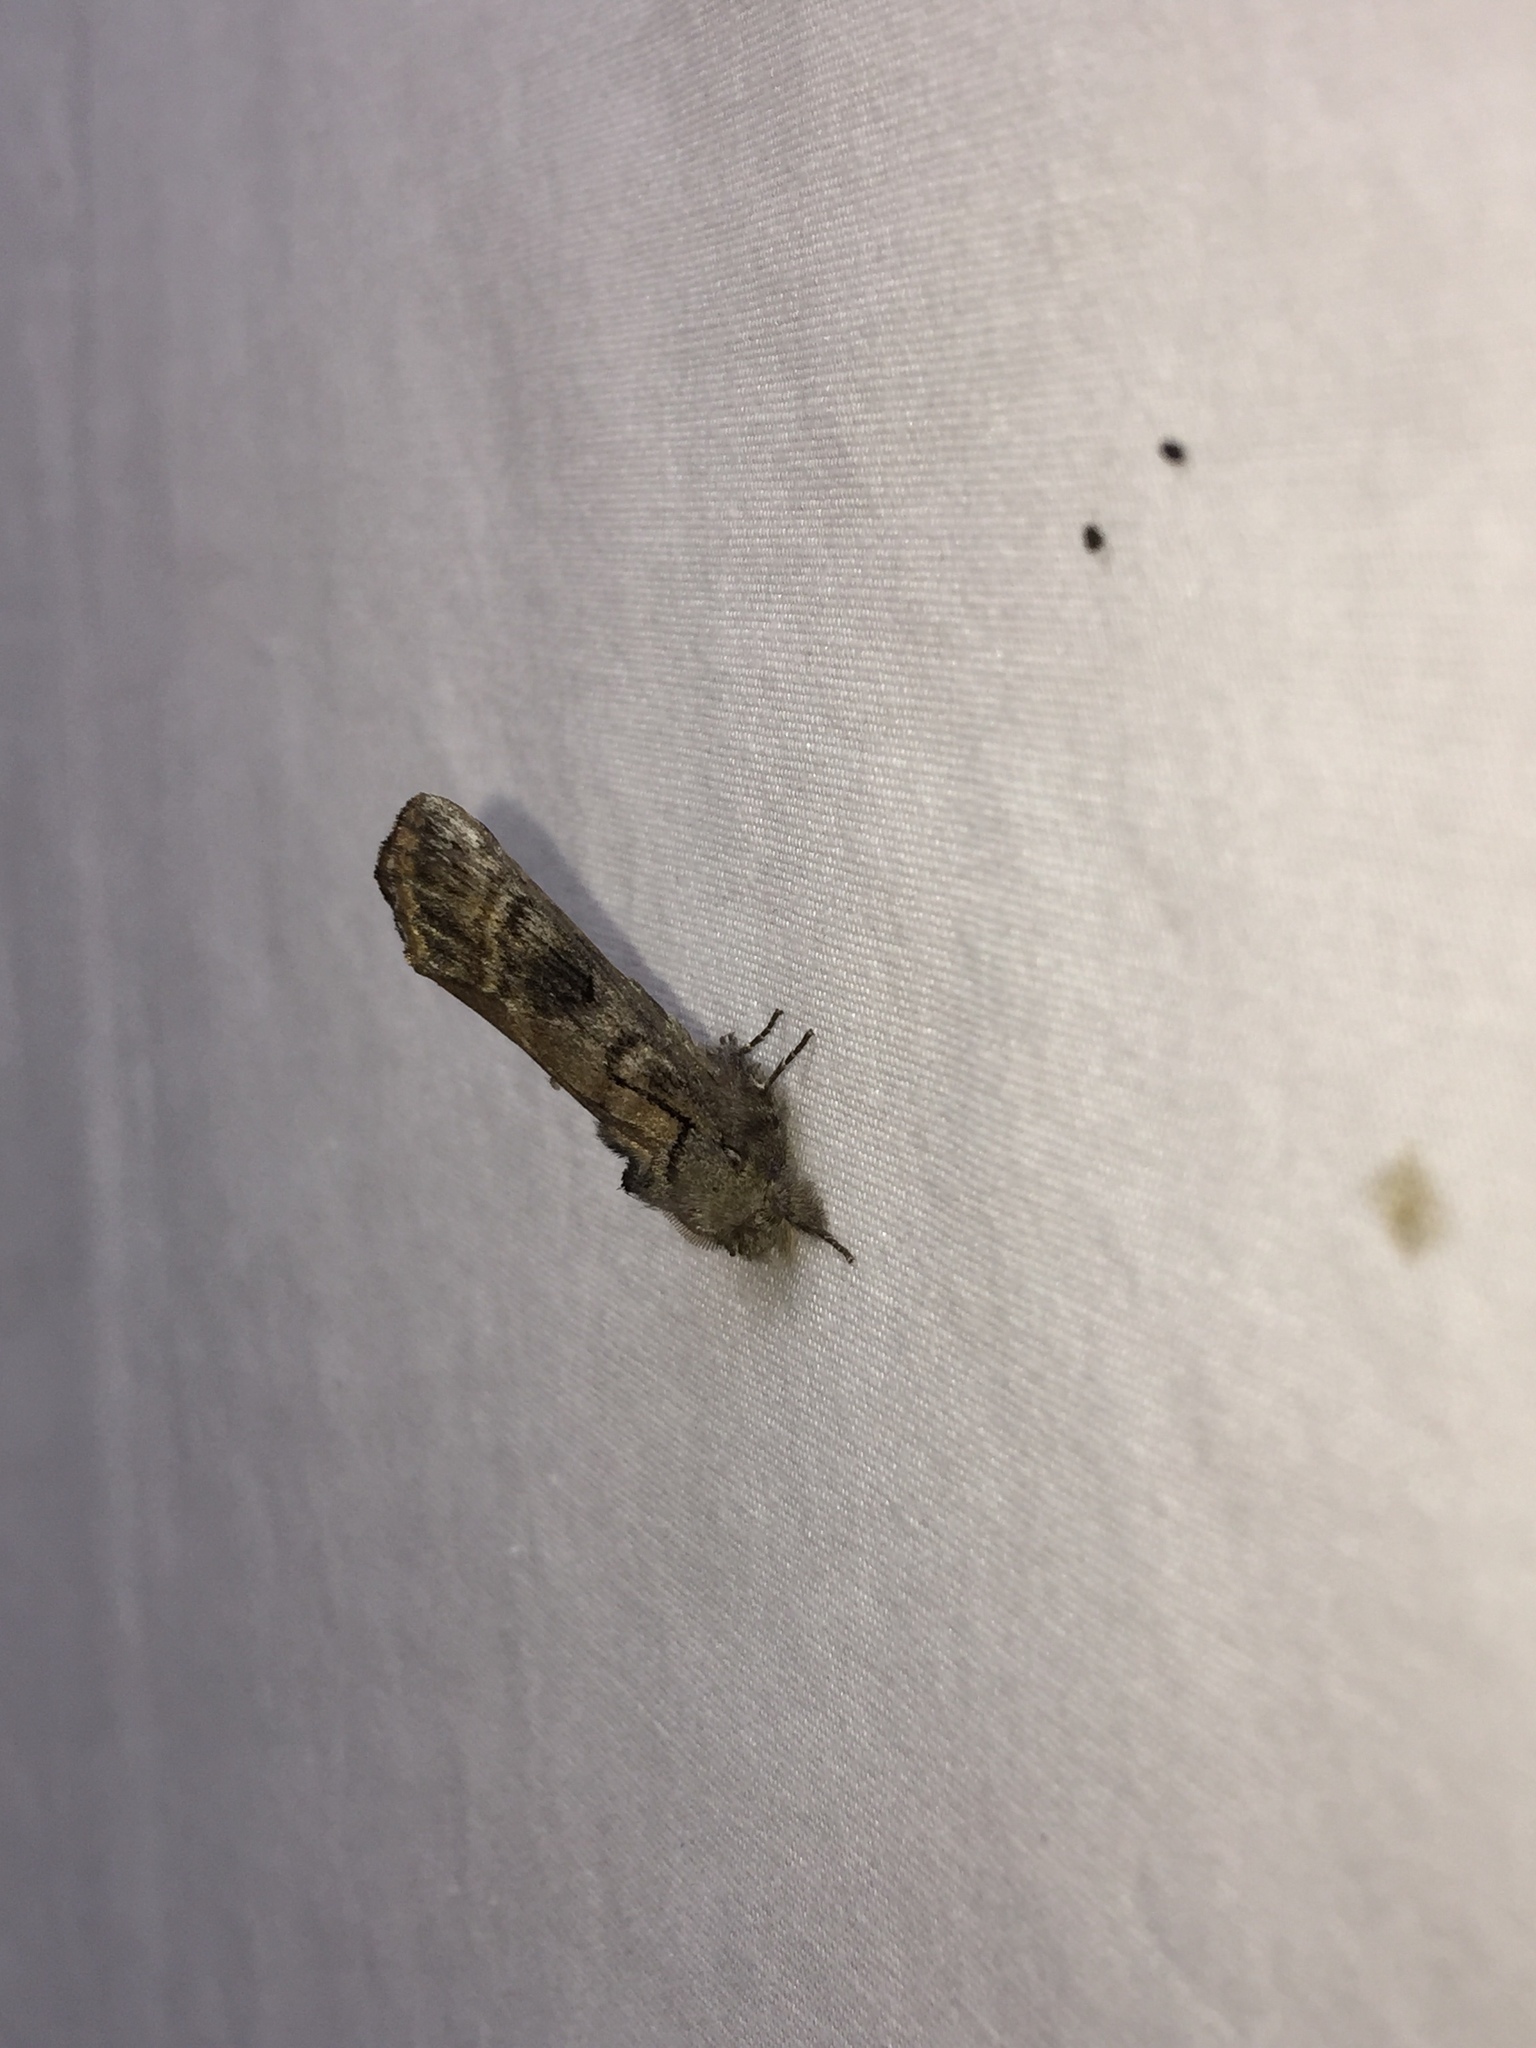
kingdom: Animalia
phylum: Arthropoda
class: Insecta
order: Lepidoptera
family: Notodontidae
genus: Schizura
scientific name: Schizura
